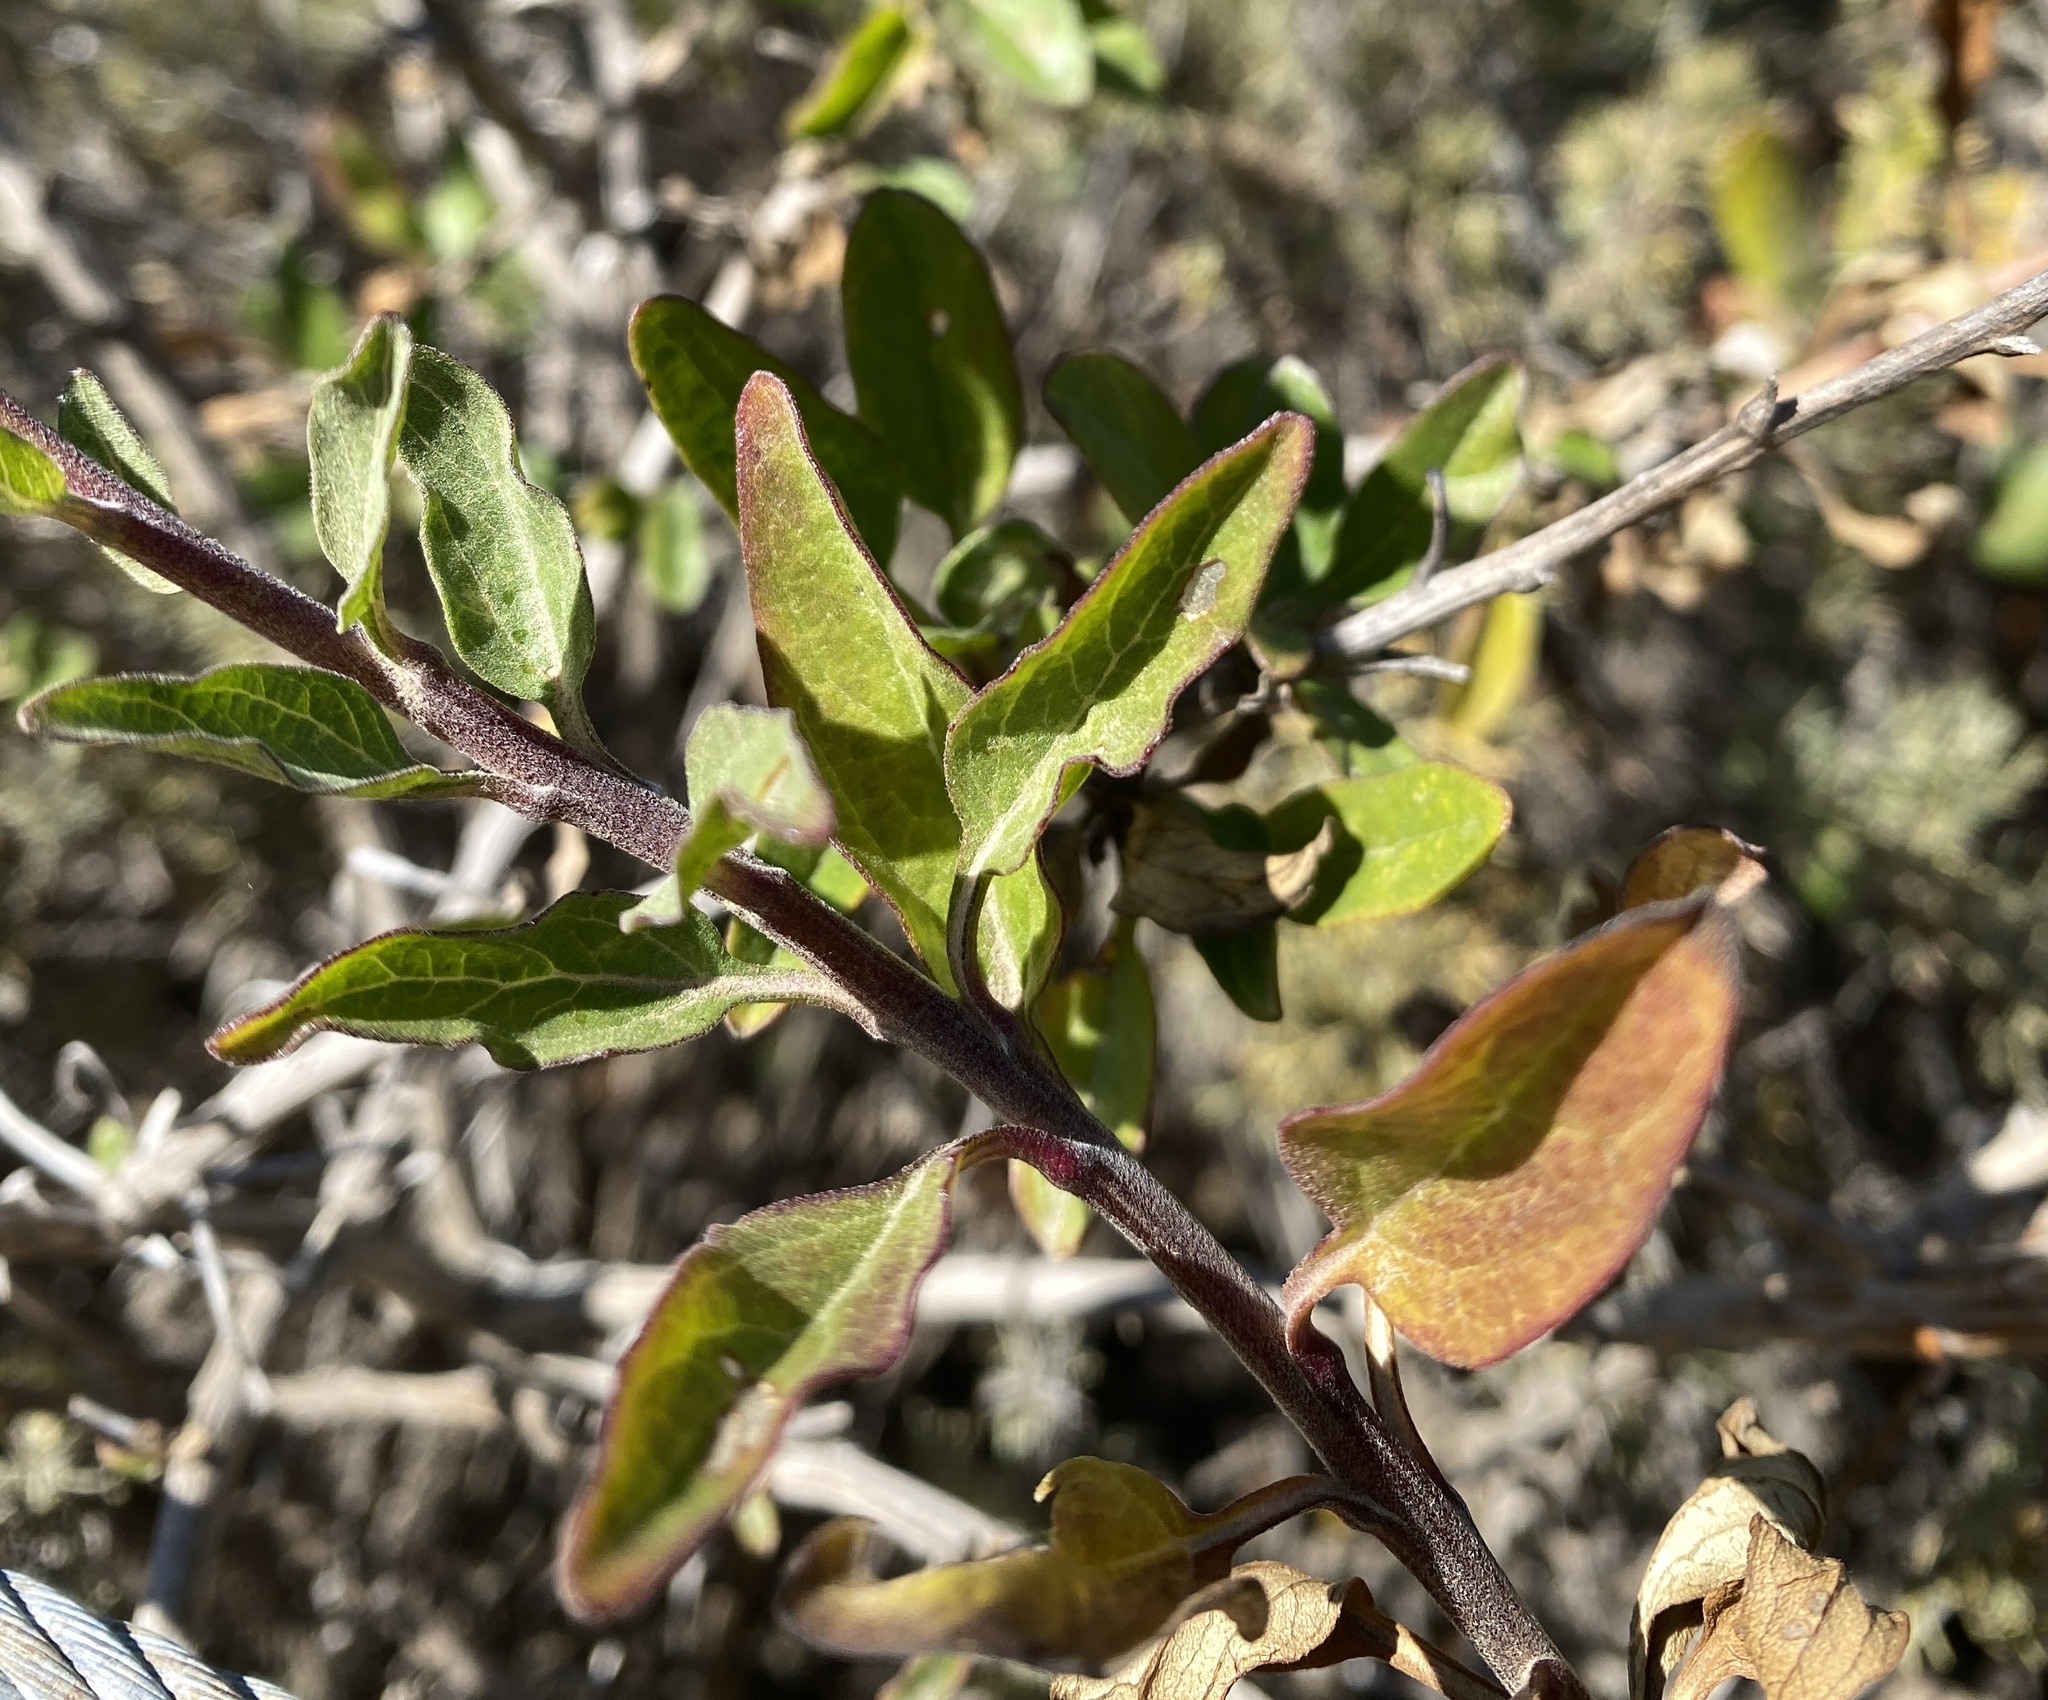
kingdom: Plantae
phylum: Tracheophyta
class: Magnoliopsida
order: Asterales
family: Asteraceae
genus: Encelia
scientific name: Encelia californica
